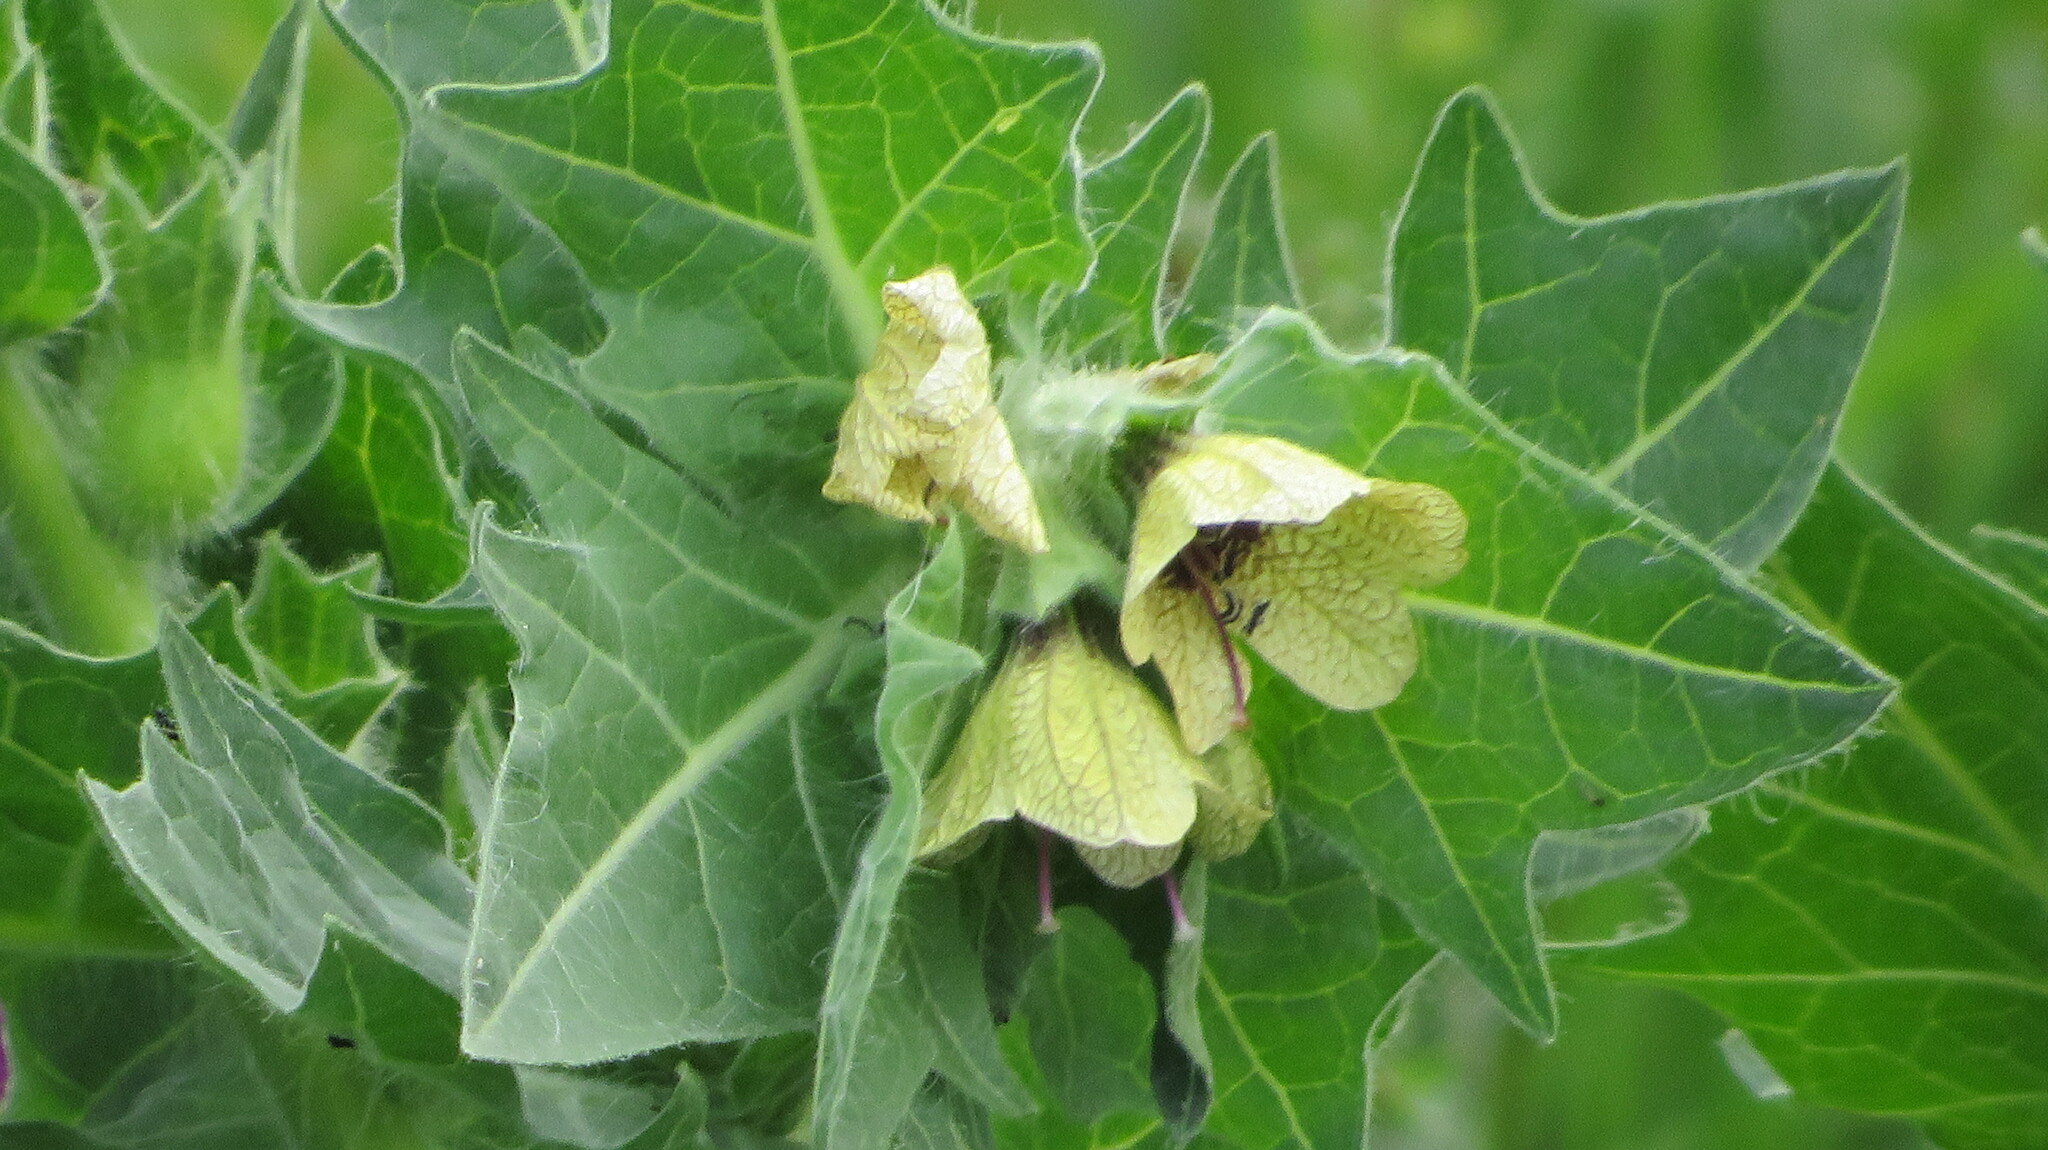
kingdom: Plantae
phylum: Tracheophyta
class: Magnoliopsida
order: Solanales
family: Solanaceae
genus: Hyoscyamus
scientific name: Hyoscyamus niger
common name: Henbane
